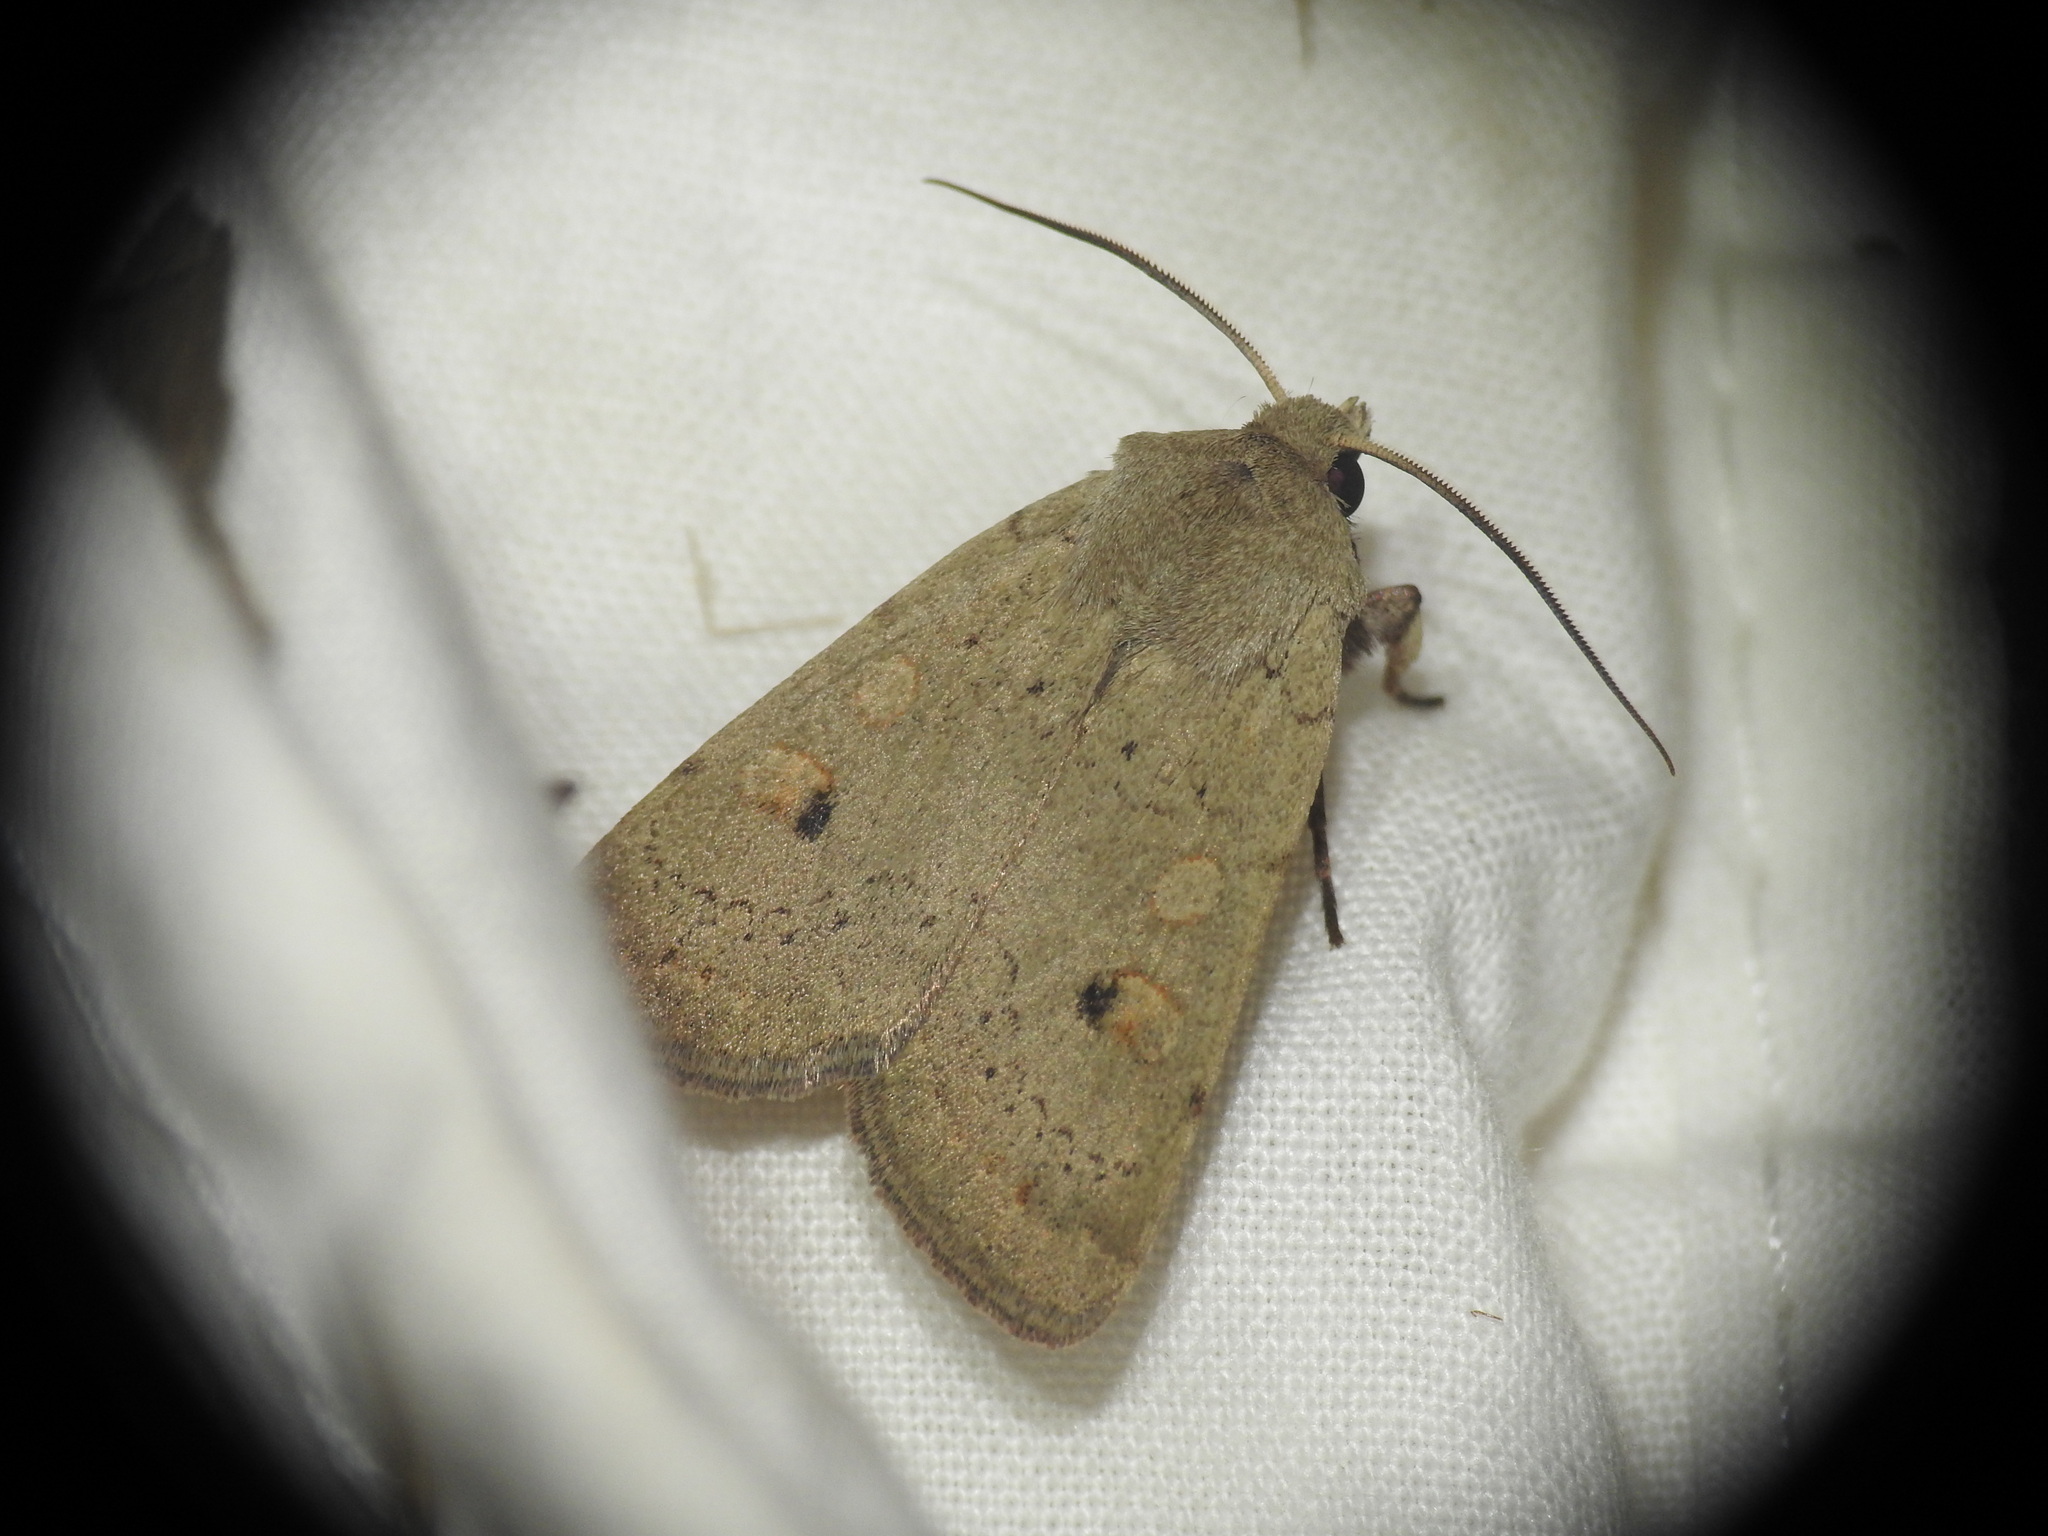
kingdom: Animalia
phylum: Arthropoda
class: Insecta
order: Lepidoptera
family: Noctuidae
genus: Xestia
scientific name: Xestia castanea
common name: Neglected rustic
